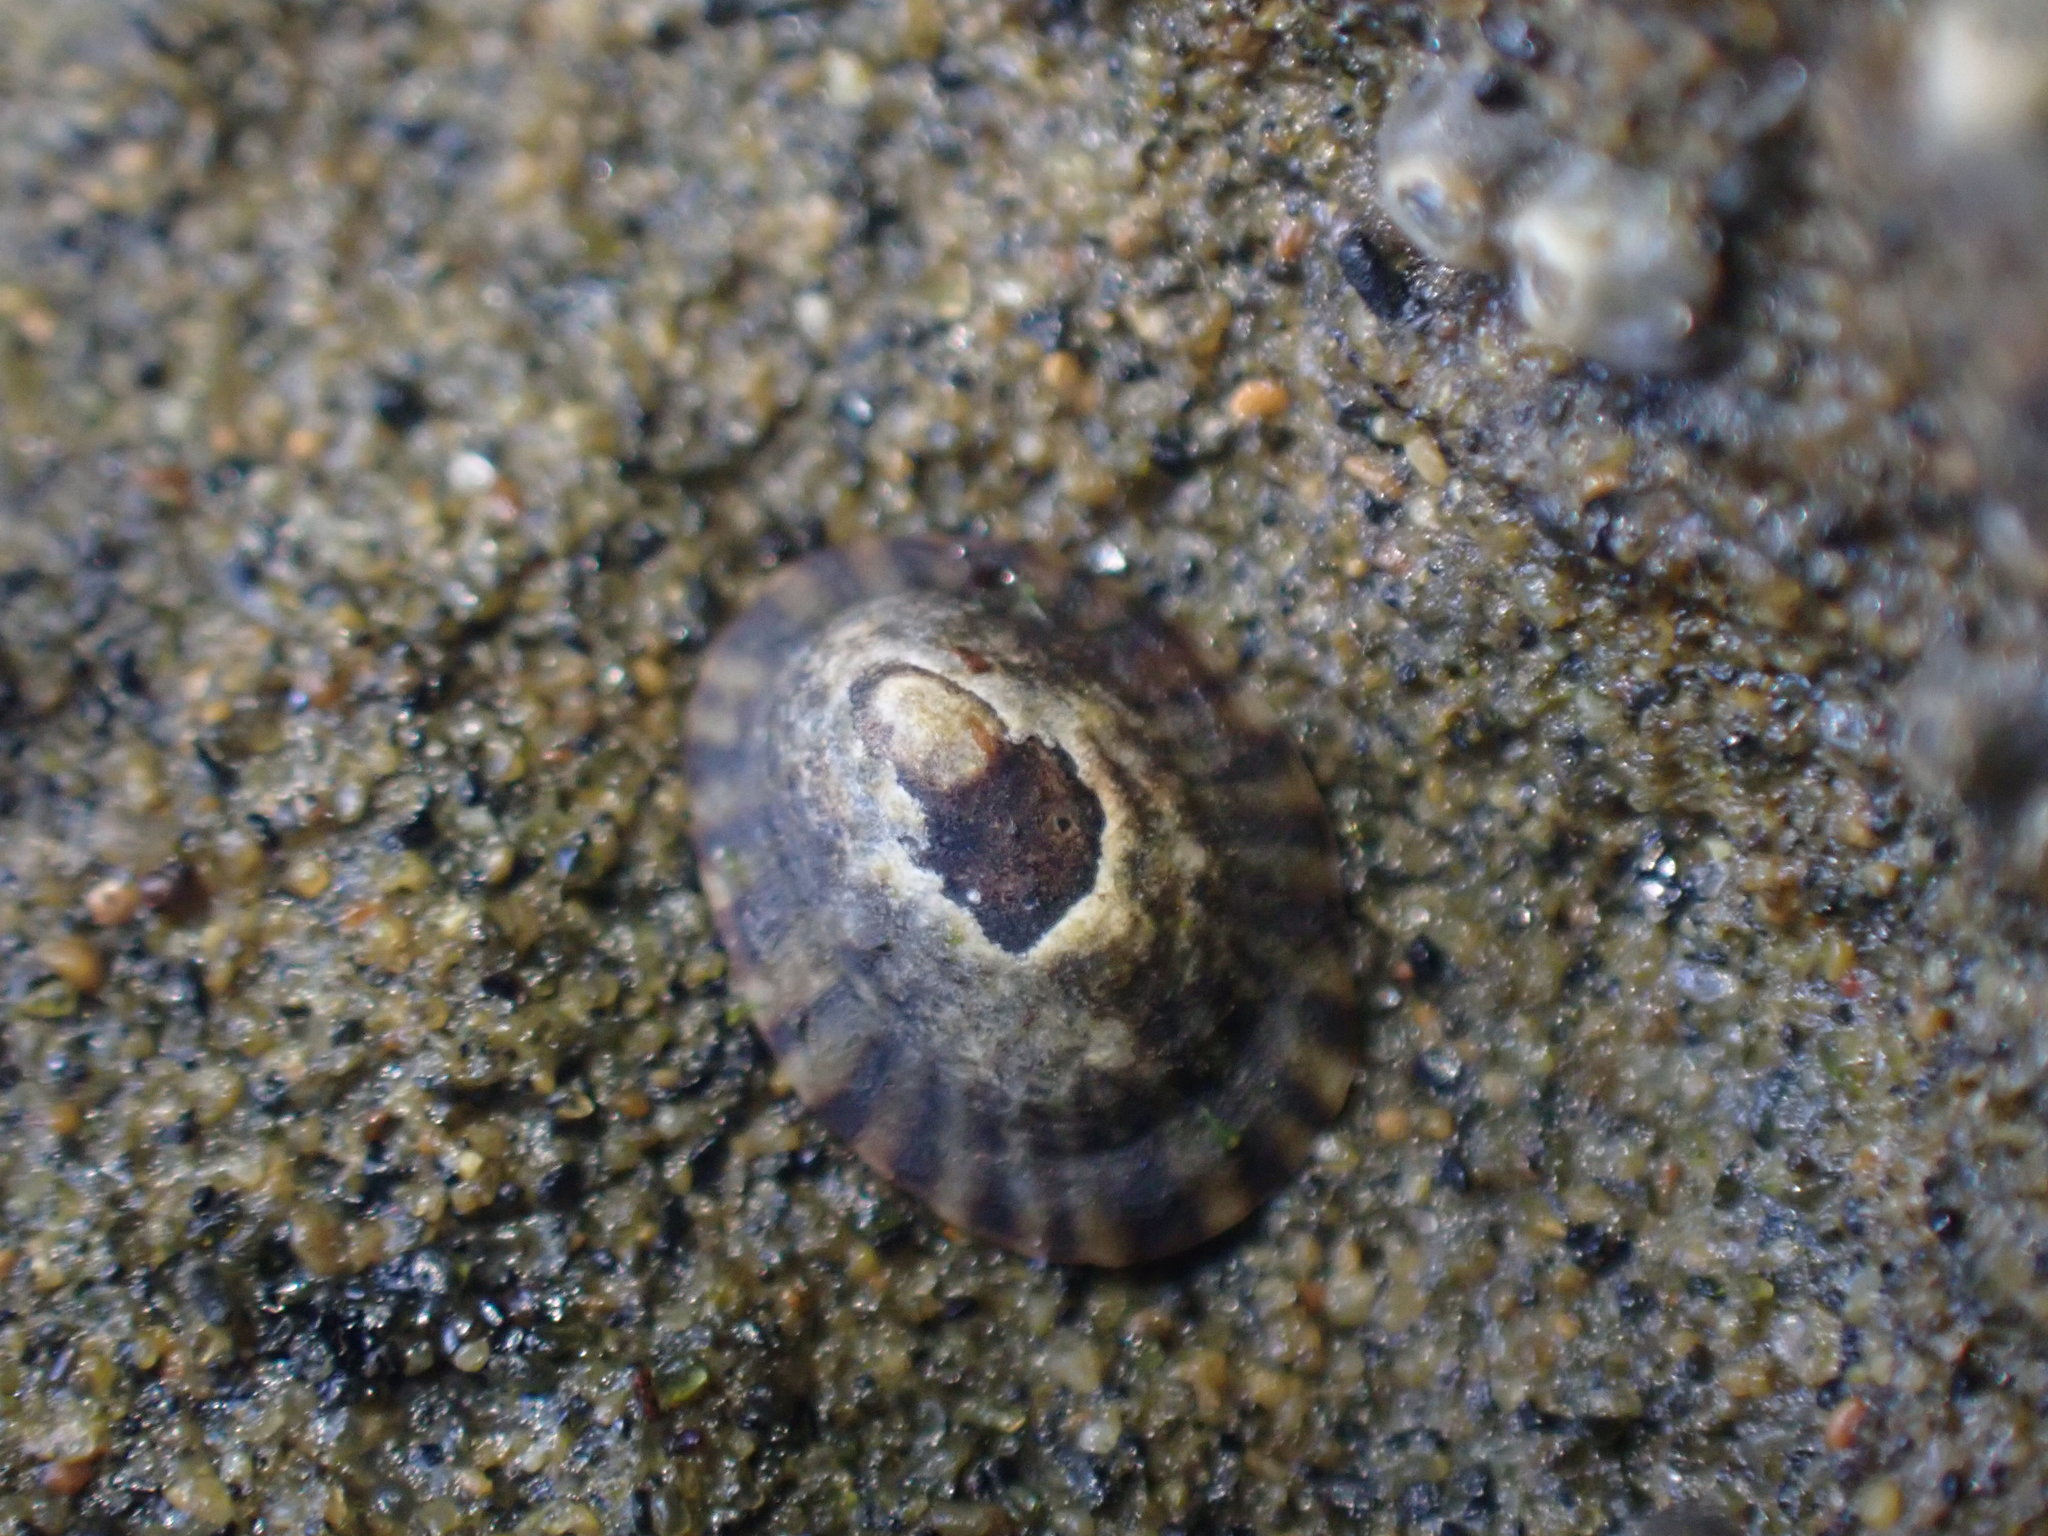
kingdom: Animalia
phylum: Mollusca
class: Gastropoda
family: Lottiidae
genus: Notoacmea
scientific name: Notoacmea parviconoidea
